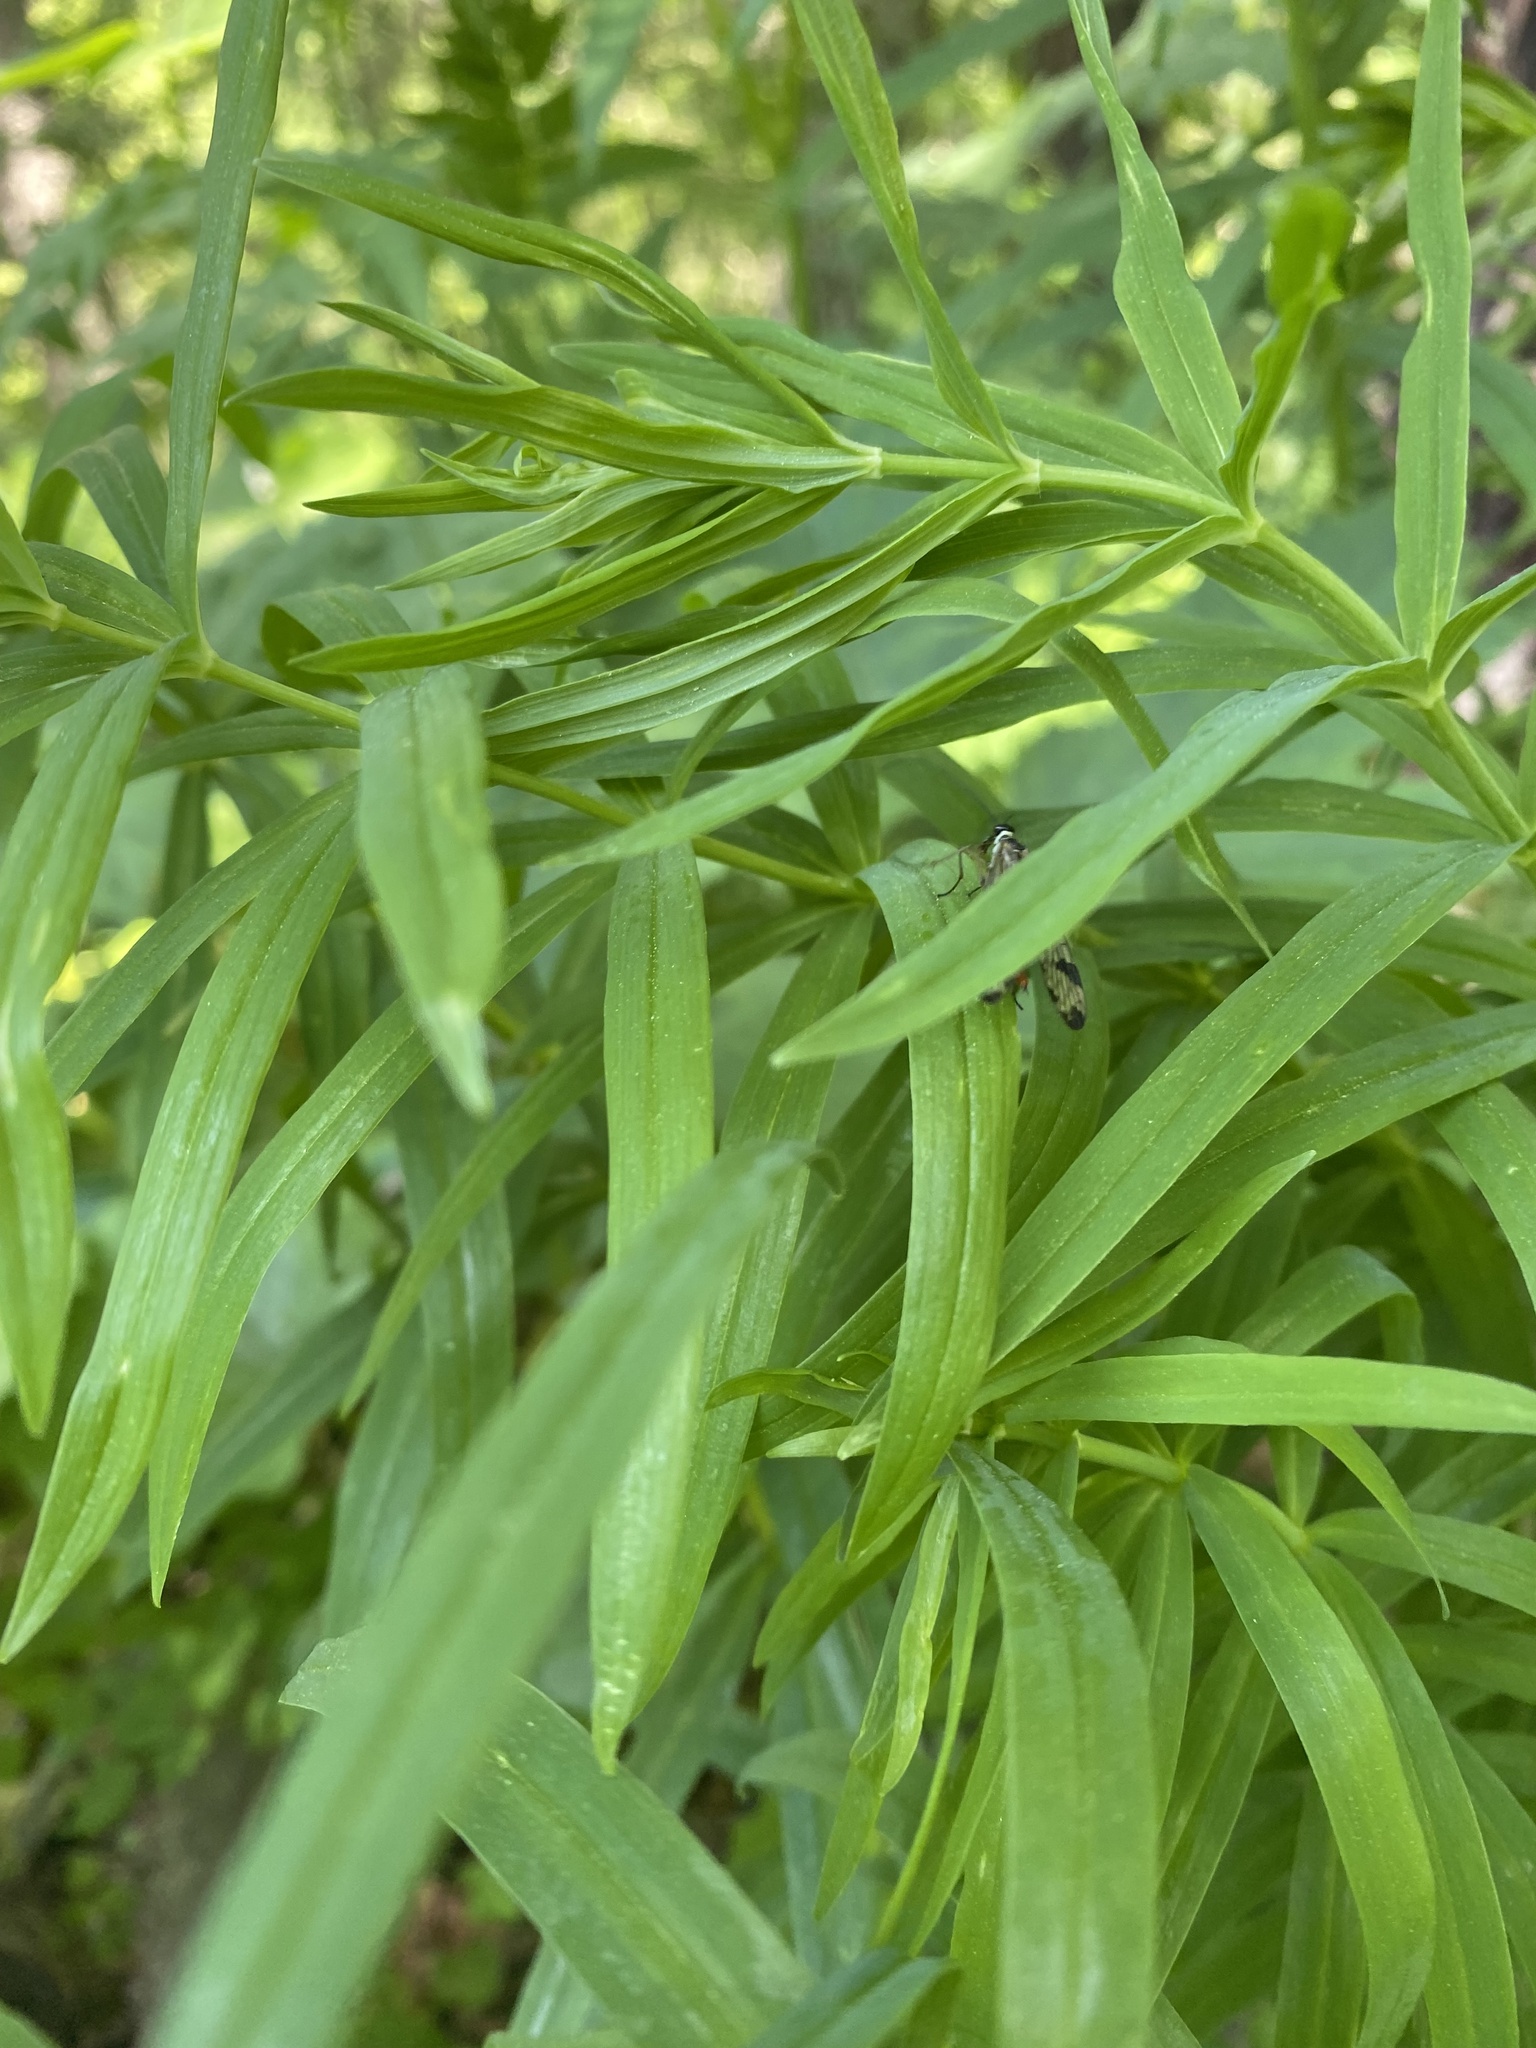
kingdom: Plantae
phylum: Tracheophyta
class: Liliopsida
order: Asparagales
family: Asparagaceae
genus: Polygonatum
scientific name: Polygonatum verticillatum
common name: Whorled solomon's-seal
